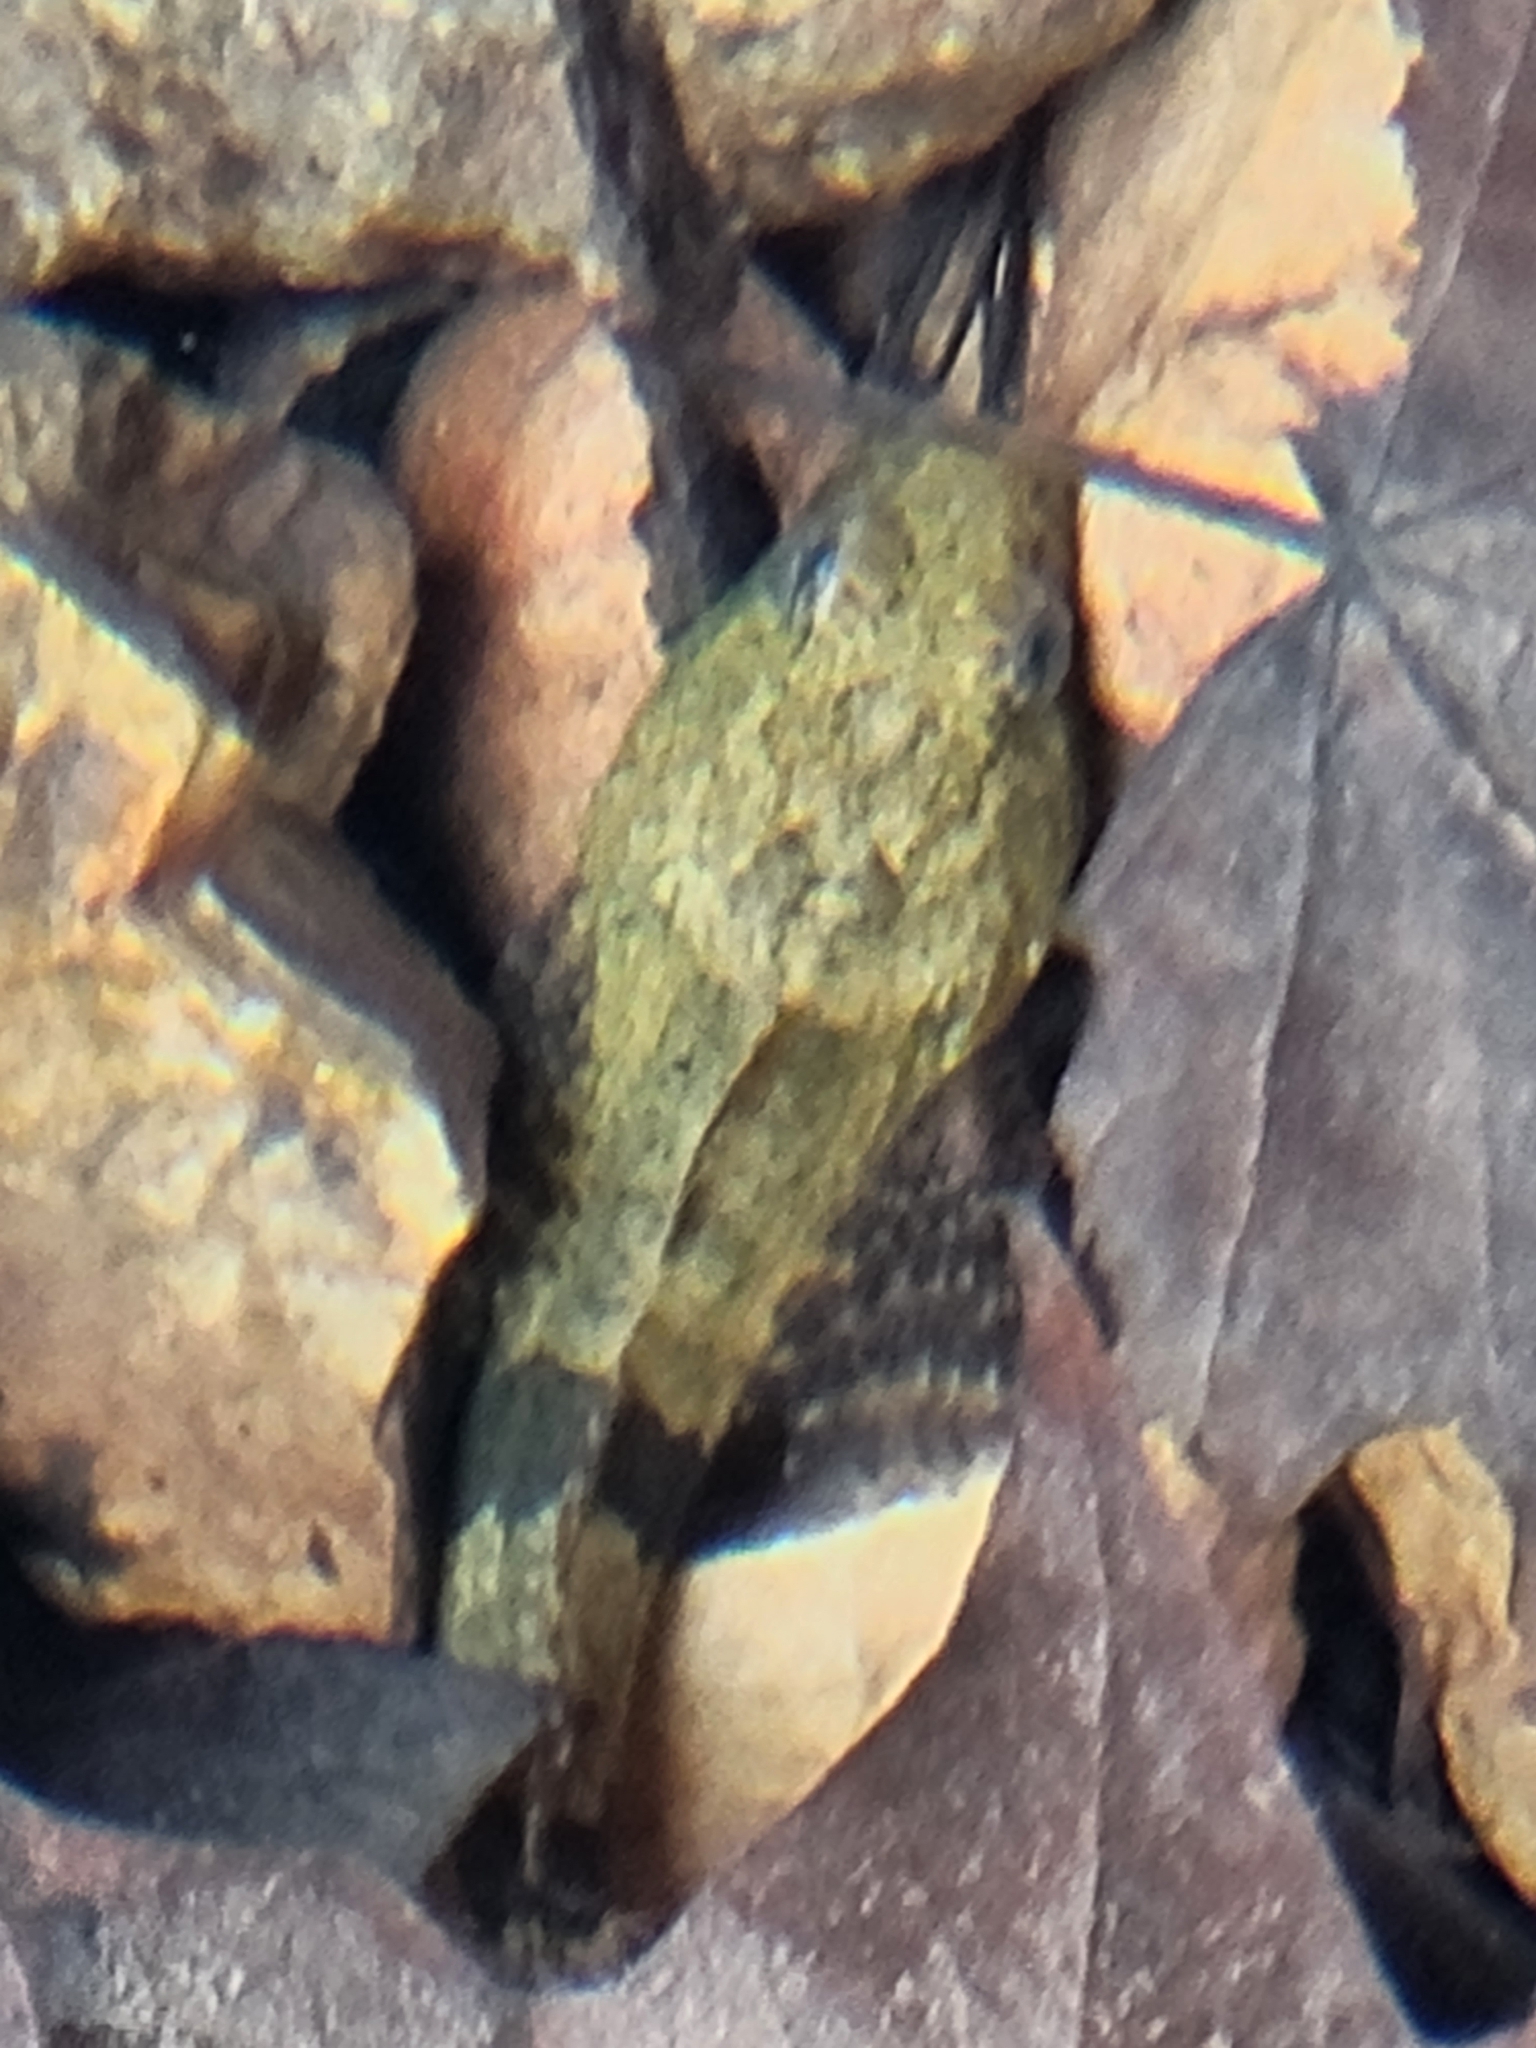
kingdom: Animalia
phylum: Chordata
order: Scorpaeniformes
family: Cottidae
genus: Cottus
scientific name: Cottus carolinae
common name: Banded sculpin
